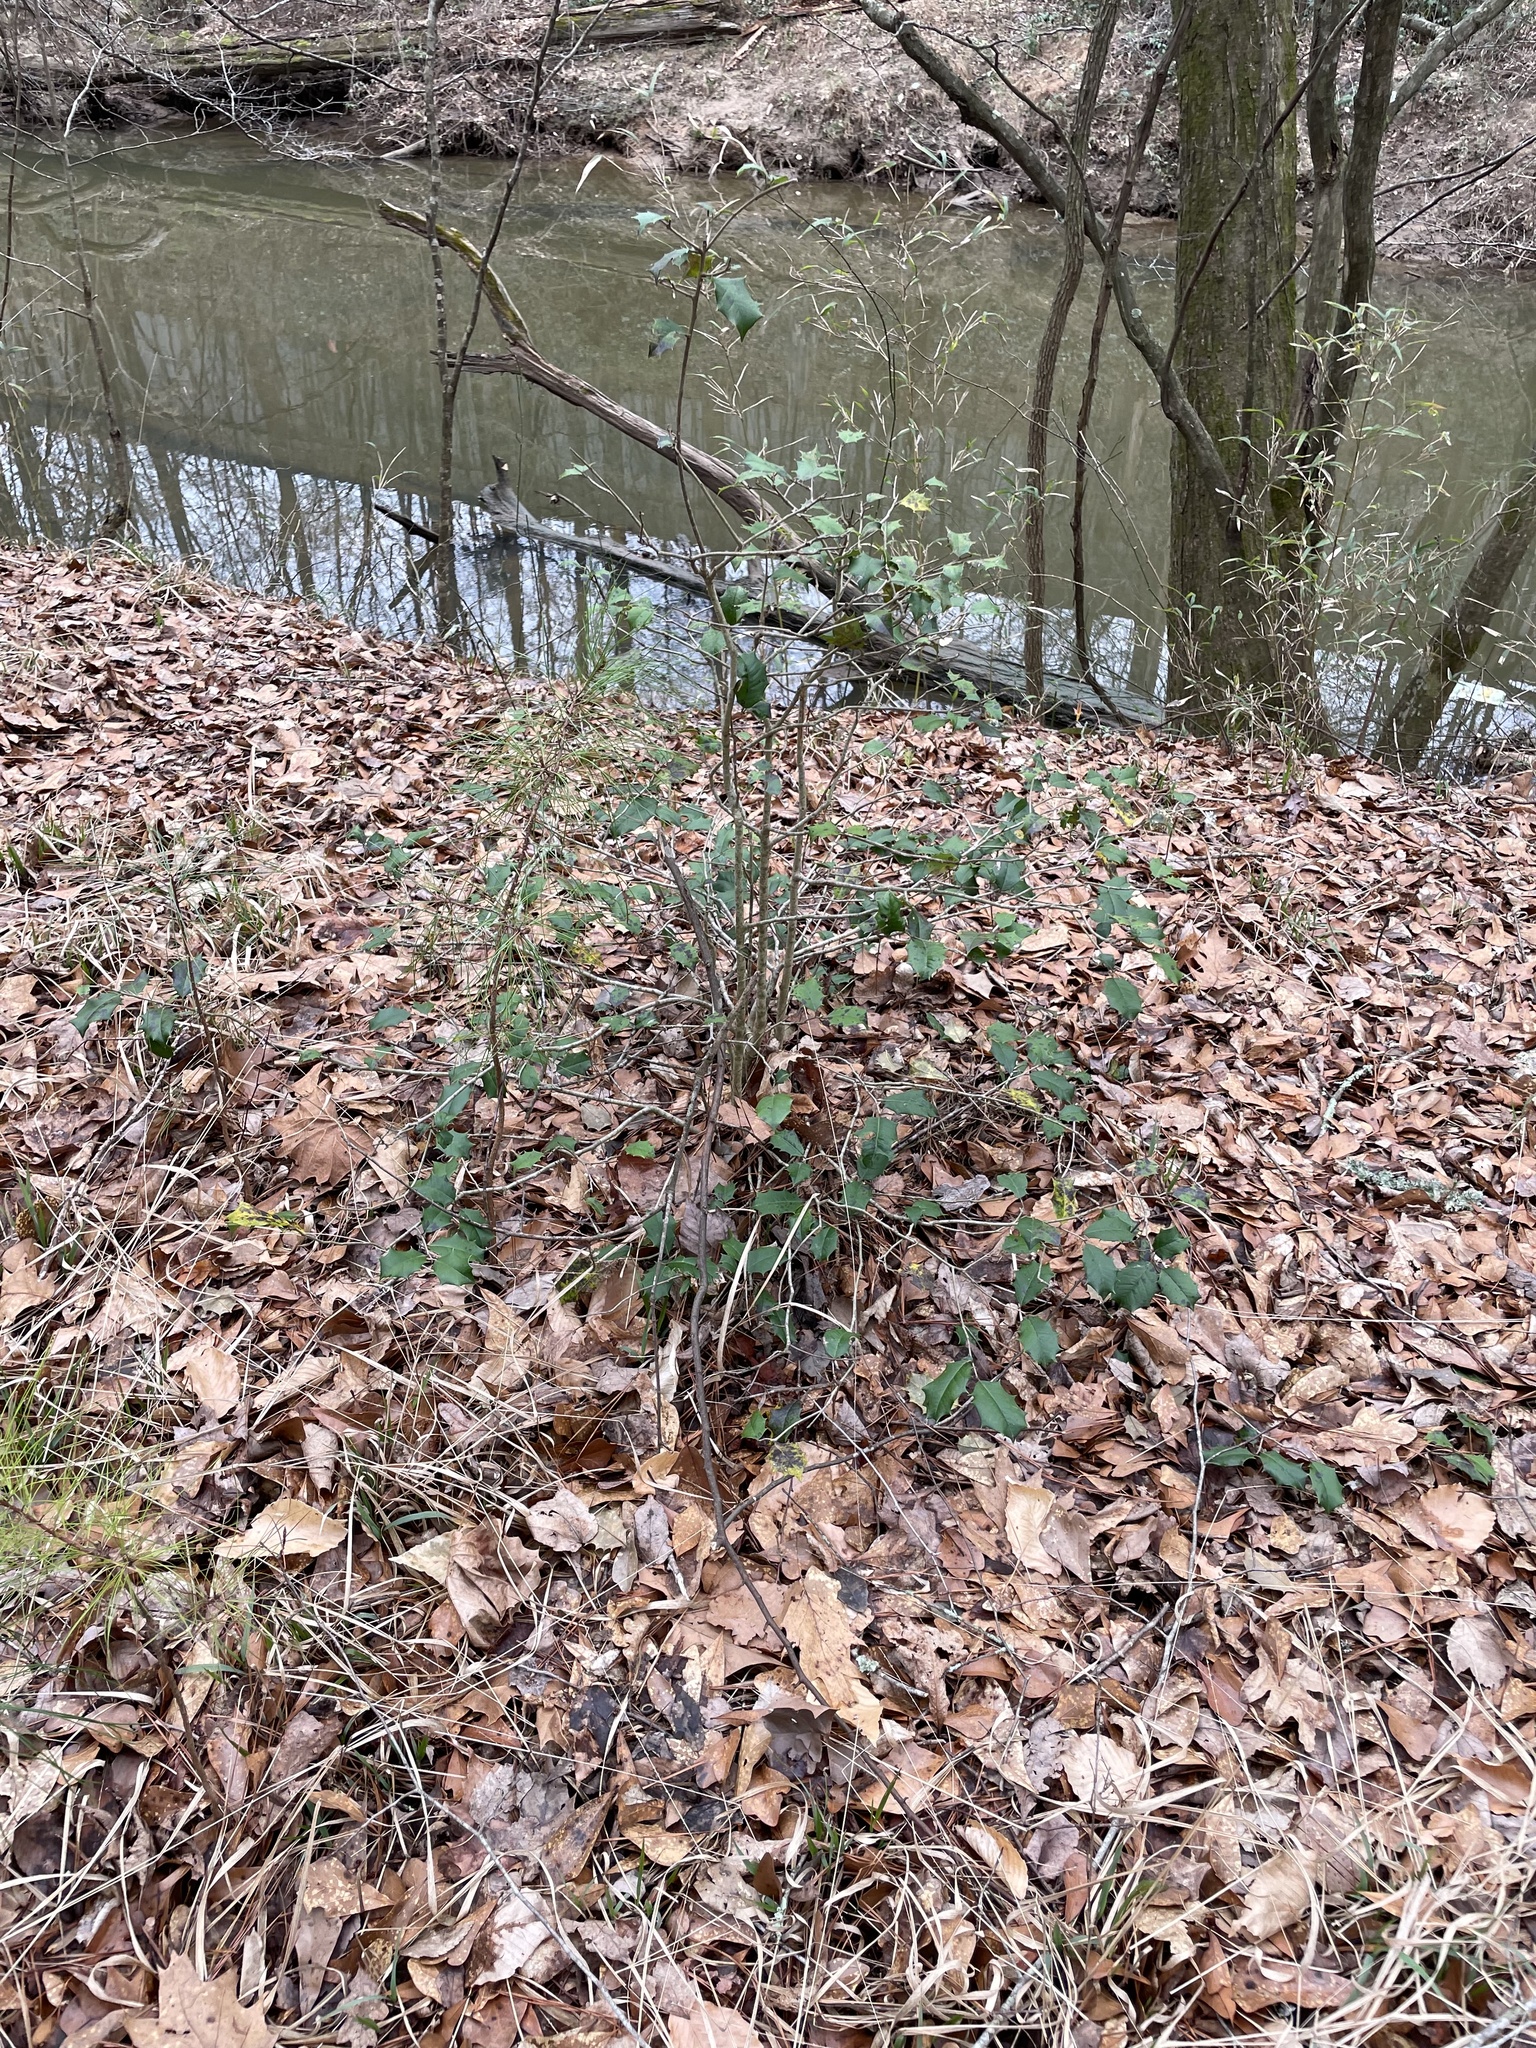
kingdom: Plantae
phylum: Tracheophyta
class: Magnoliopsida
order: Aquifoliales
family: Aquifoliaceae
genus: Ilex
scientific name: Ilex opaca
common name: American holly
